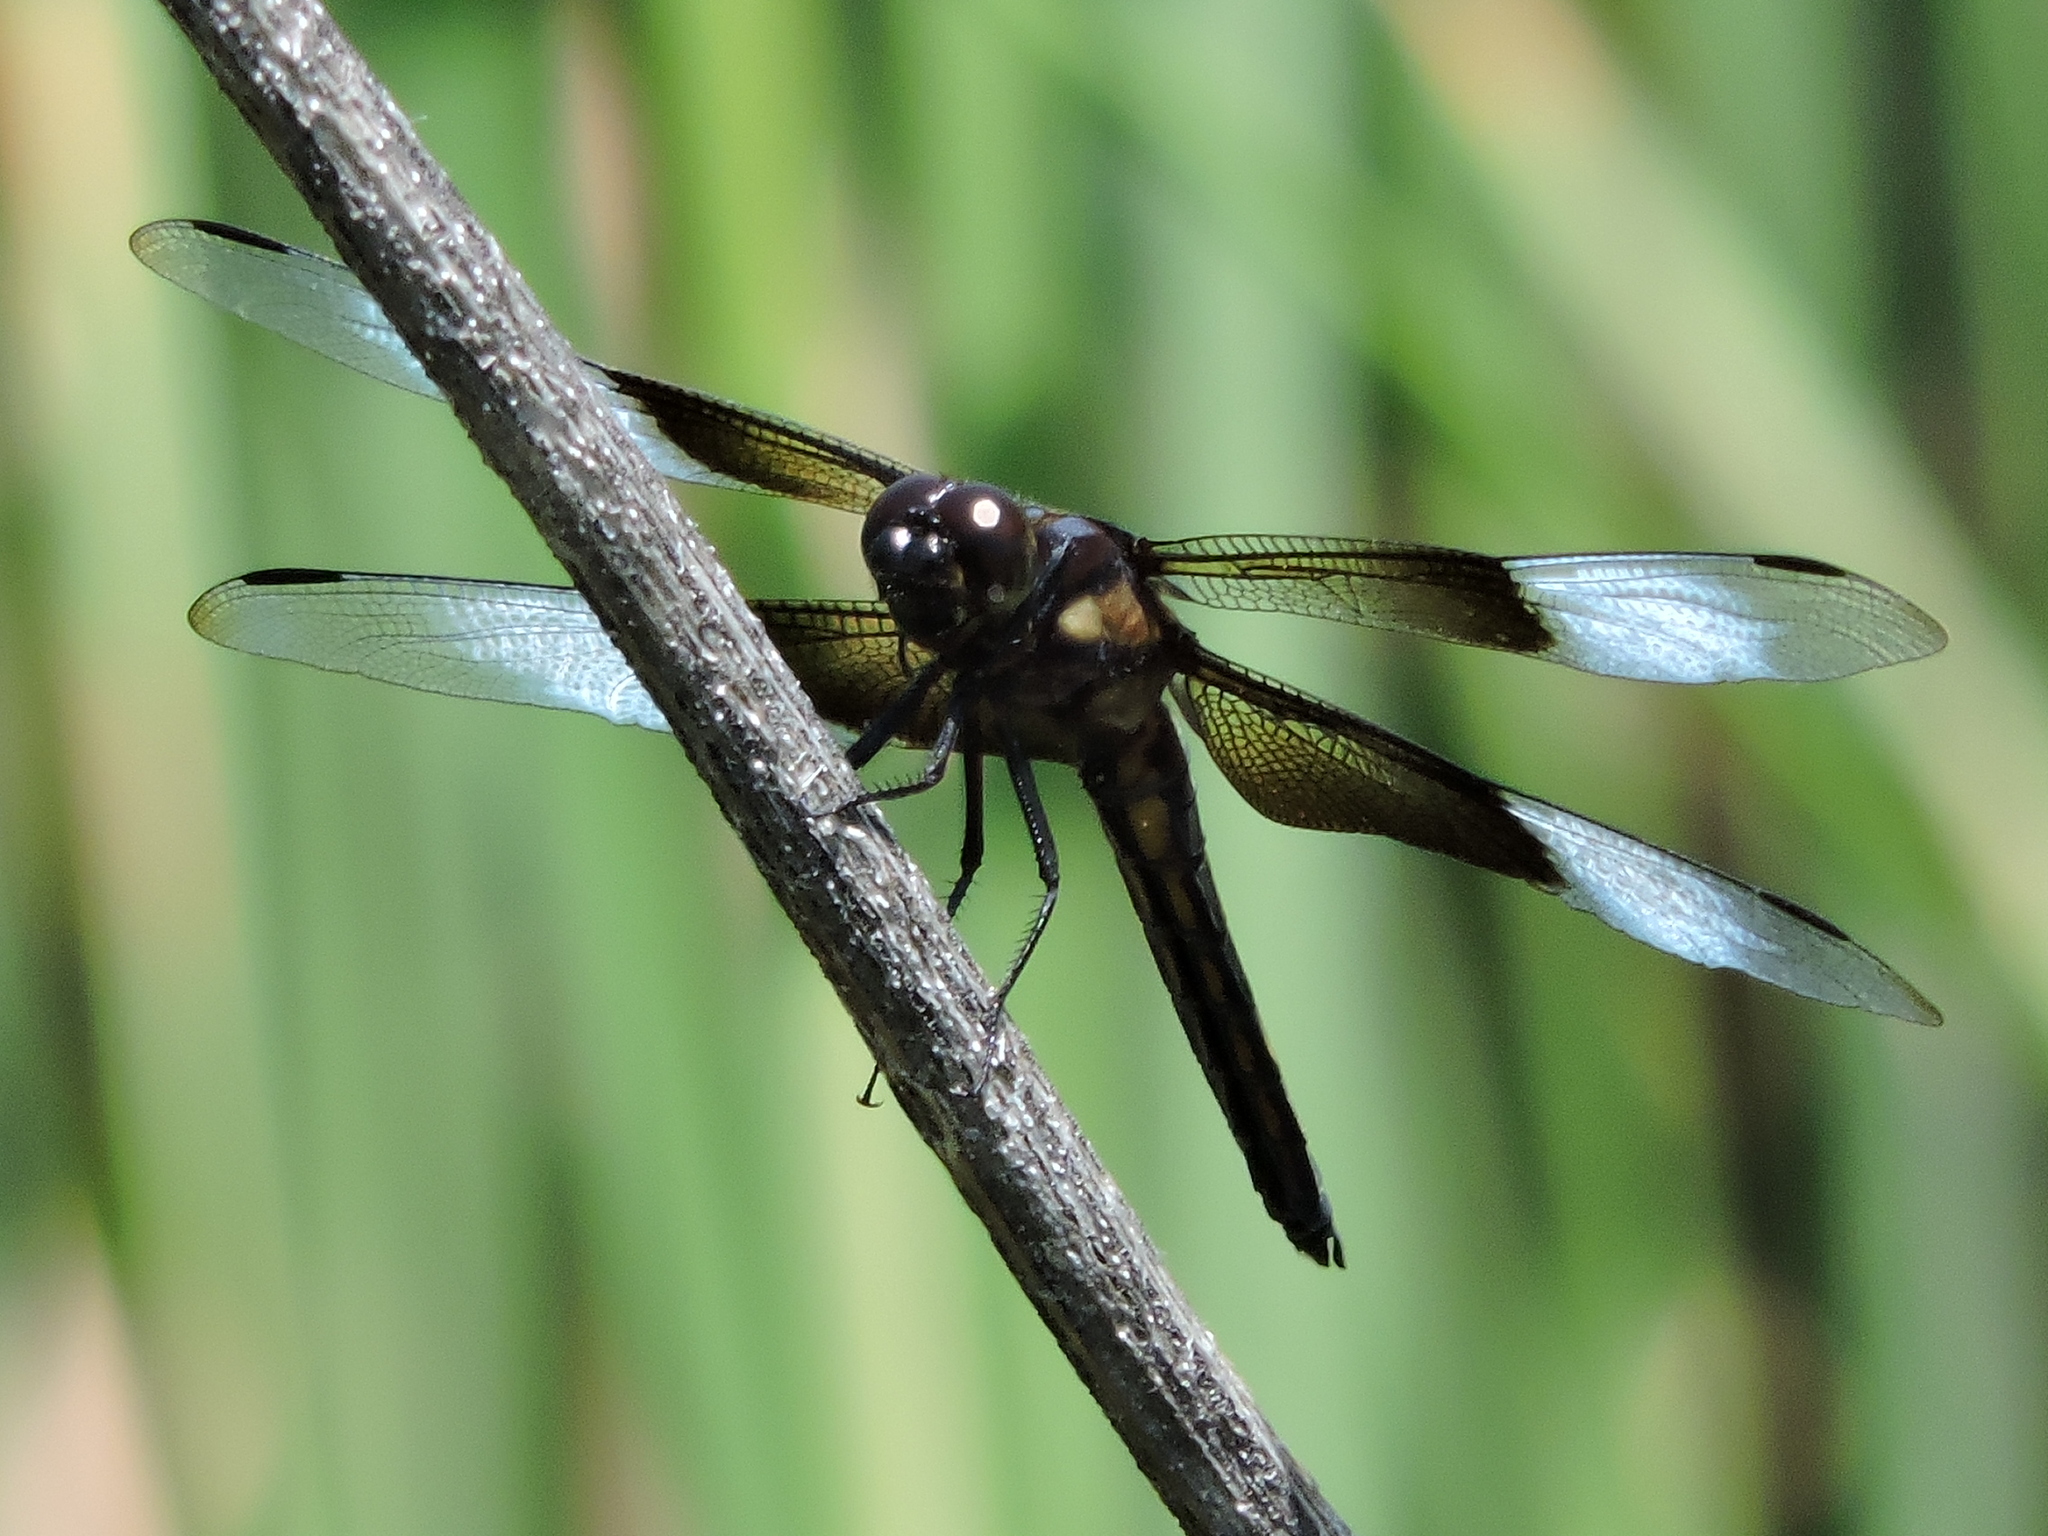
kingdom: Animalia
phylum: Arthropoda
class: Insecta
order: Odonata
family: Libellulidae
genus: Libellula
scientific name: Libellula luctuosa
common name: Widow skimmer
